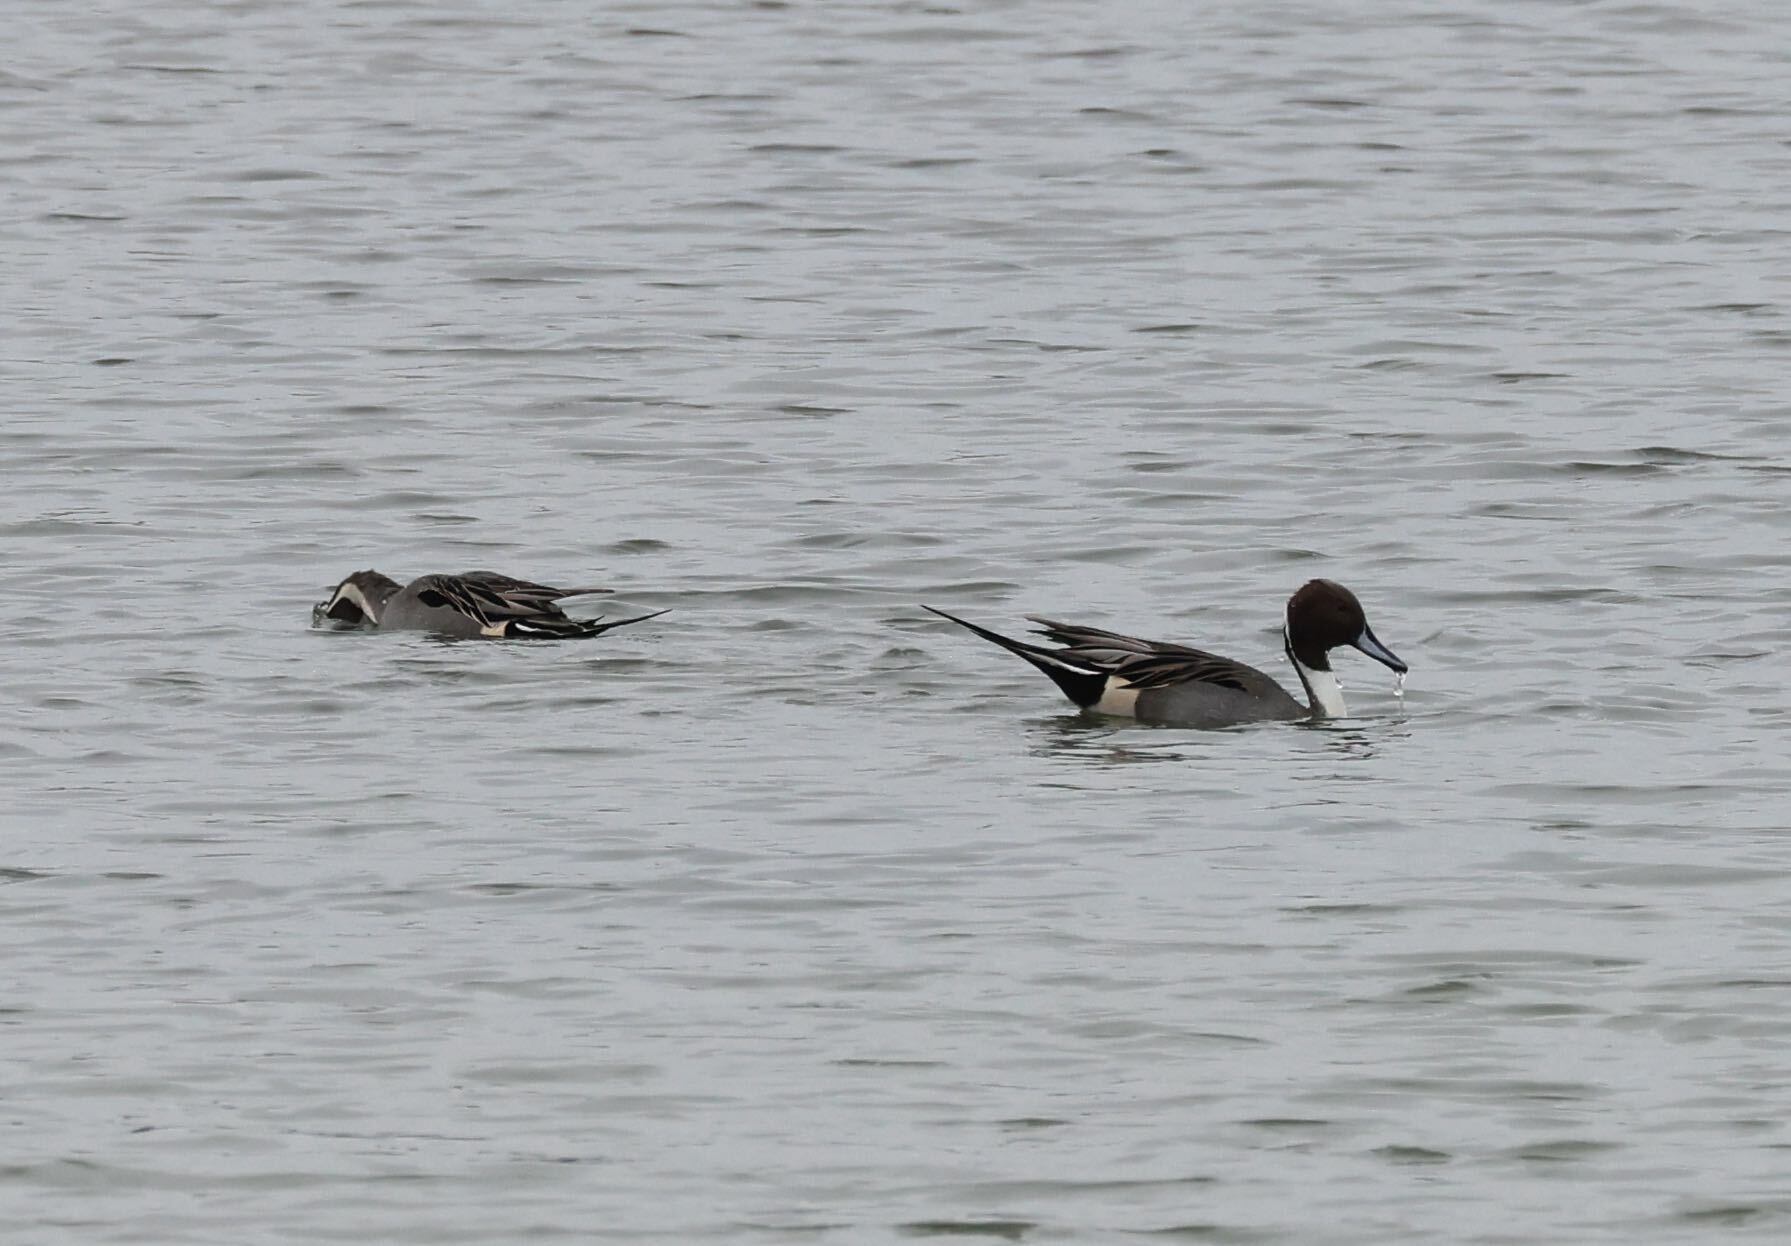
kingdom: Animalia
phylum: Chordata
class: Aves
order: Anseriformes
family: Anatidae
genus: Anas
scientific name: Anas acuta
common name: Northern pintail
